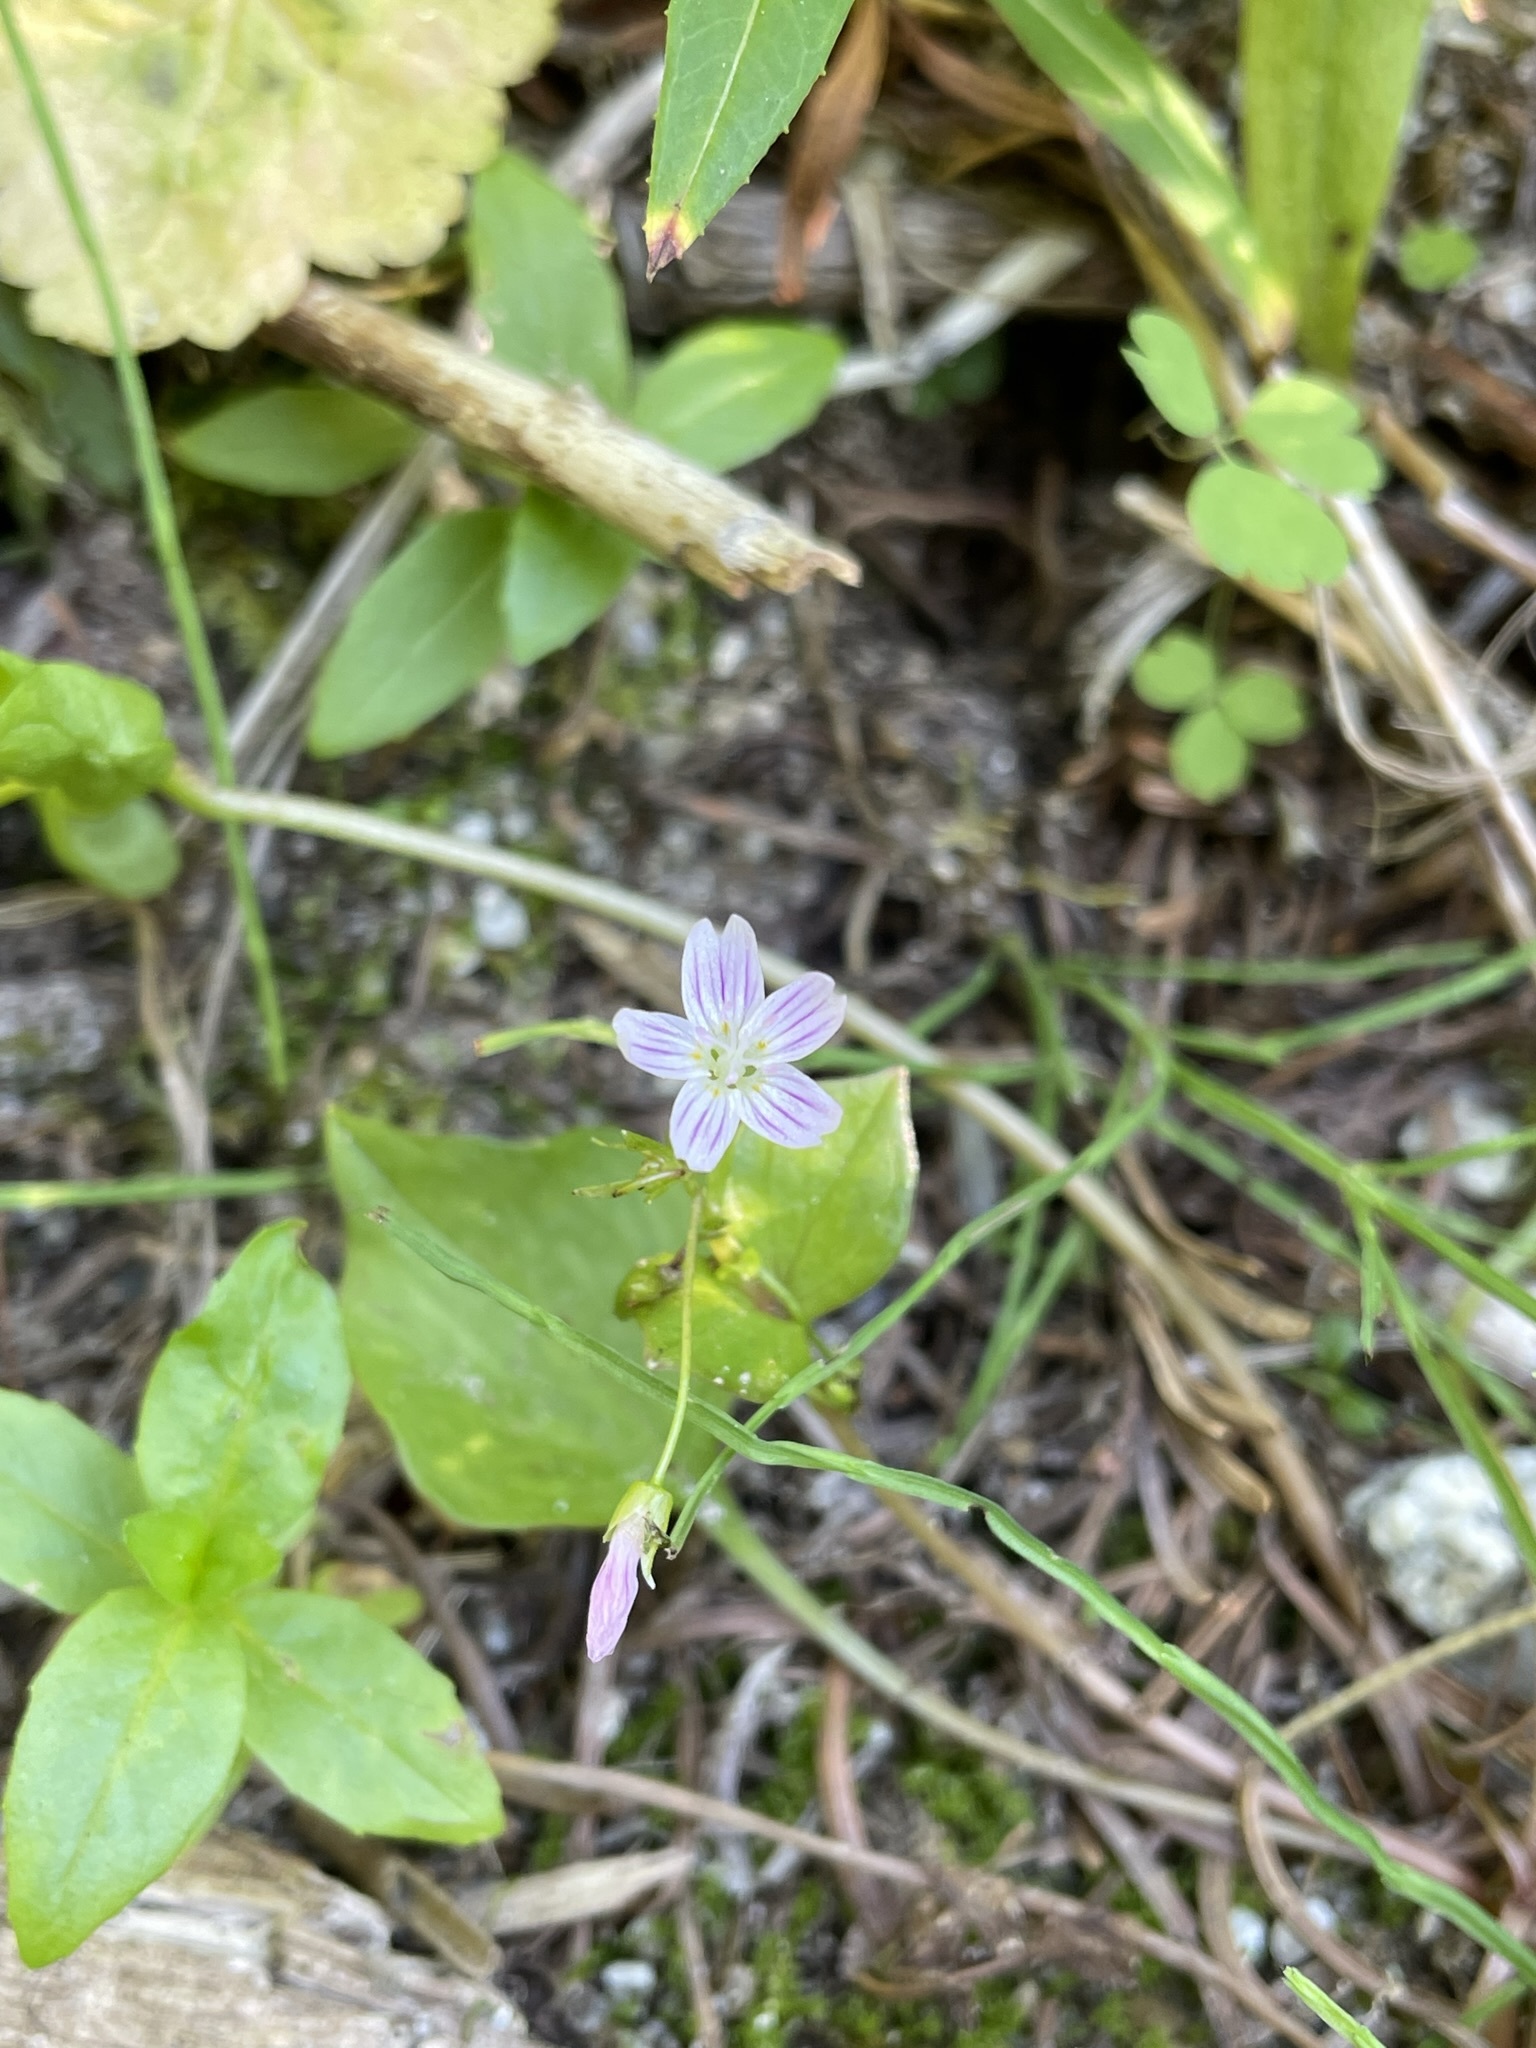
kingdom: Plantae
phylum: Tracheophyta
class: Magnoliopsida
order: Caryophyllales
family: Montiaceae
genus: Claytonia
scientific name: Claytonia sibirica
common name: Pink purslane
